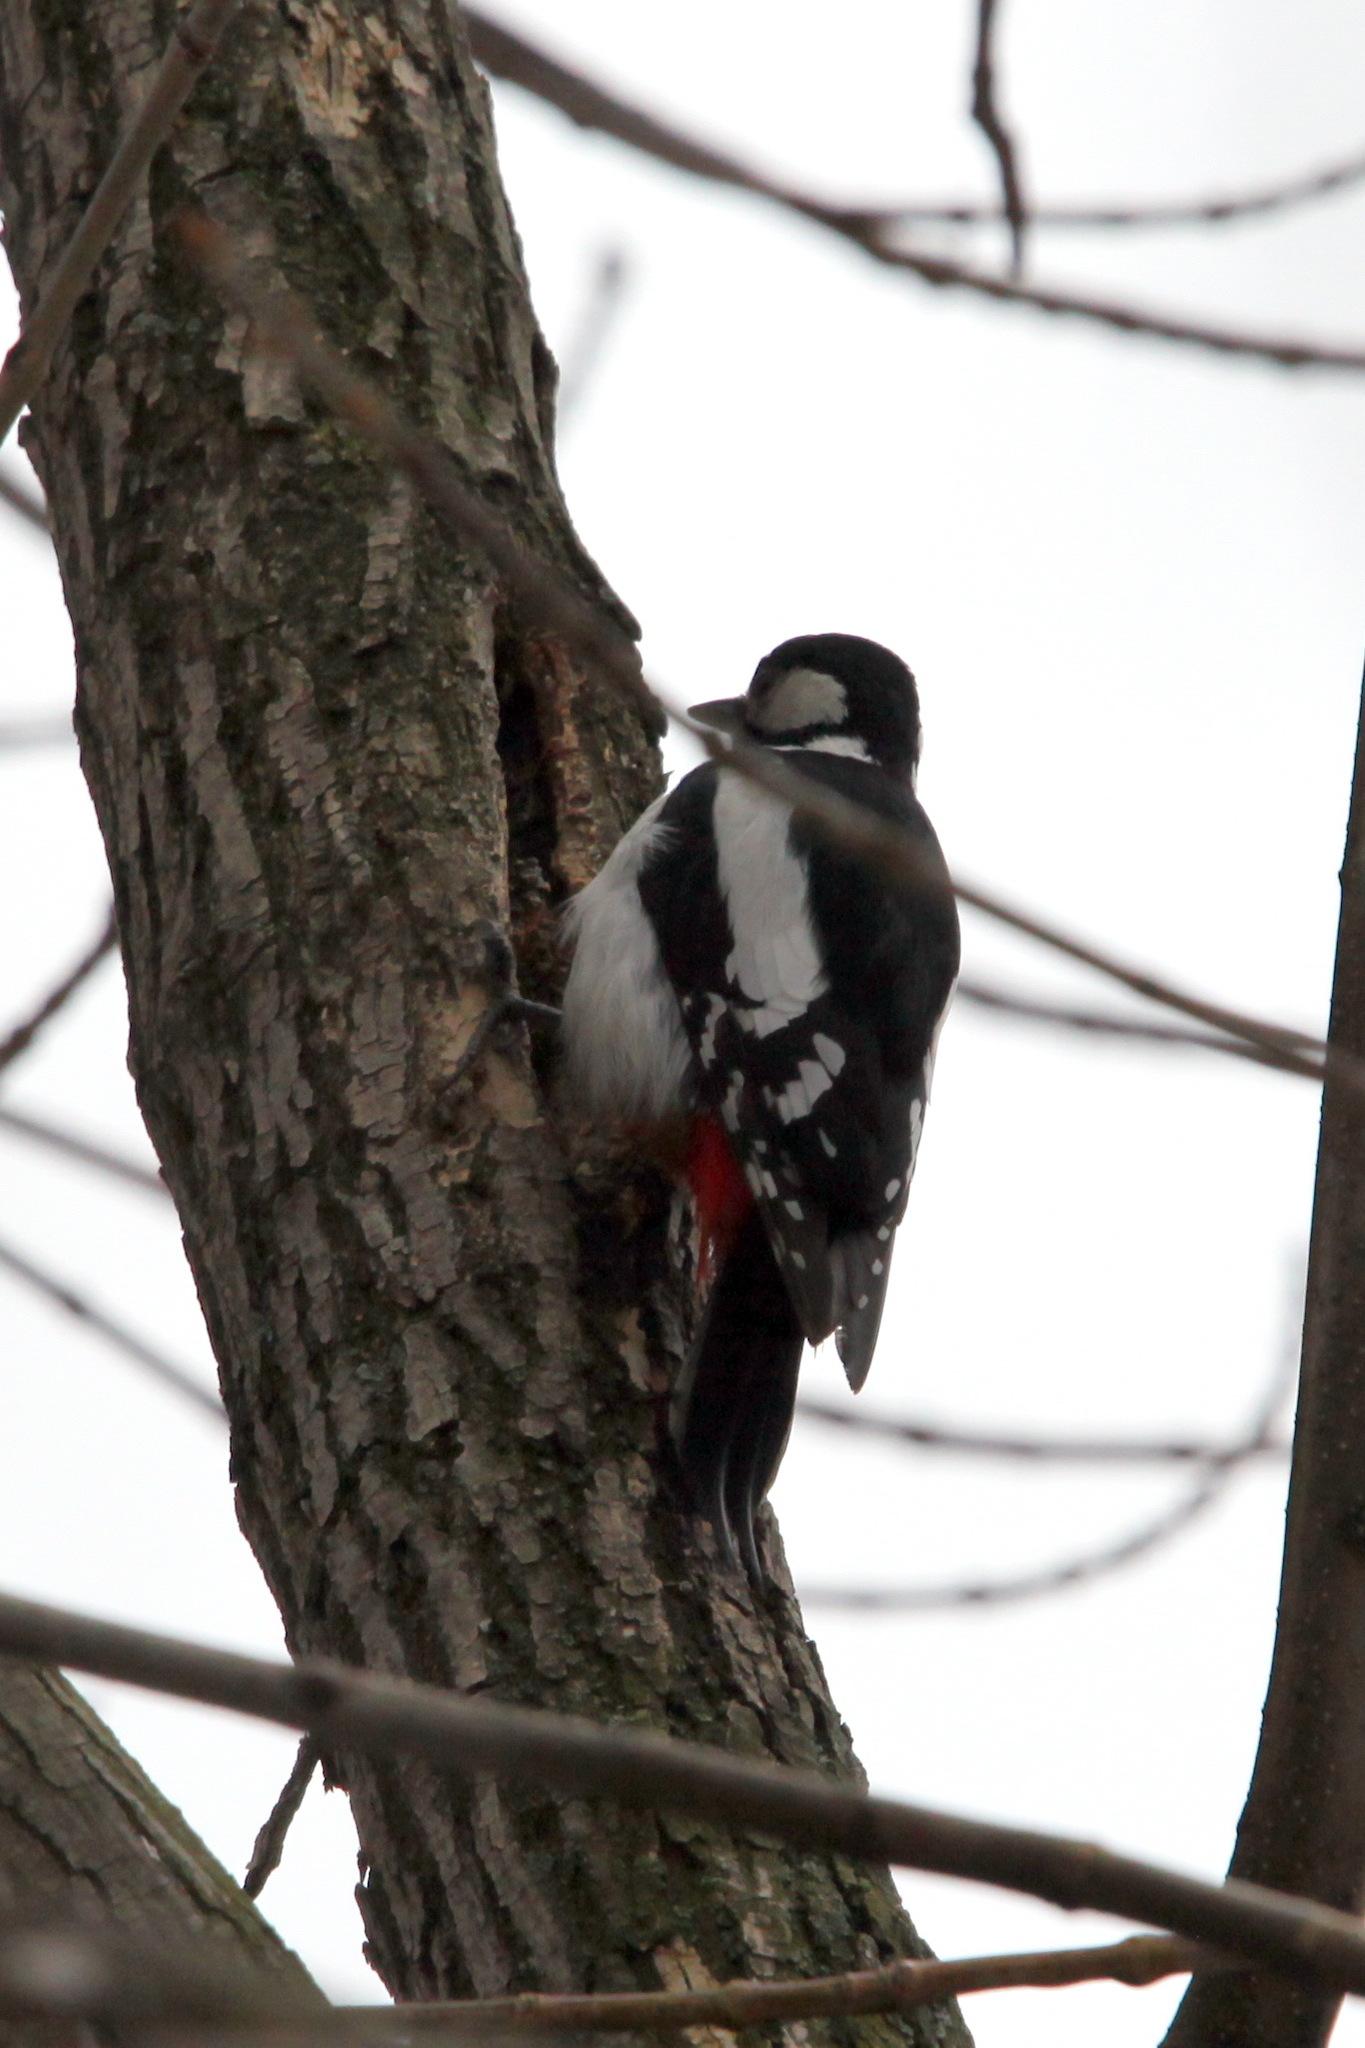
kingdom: Animalia
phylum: Chordata
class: Aves
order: Piciformes
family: Picidae
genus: Dendrocopos
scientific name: Dendrocopos major
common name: Great spotted woodpecker
